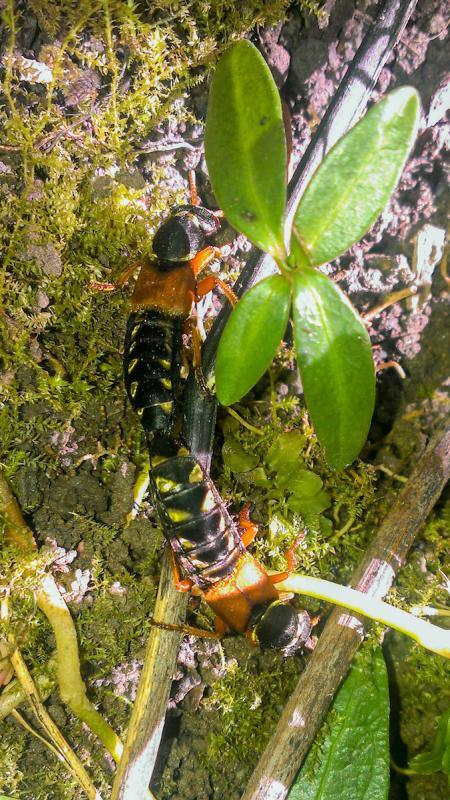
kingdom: Animalia
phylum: Arthropoda
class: Insecta
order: Coleoptera
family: Staphylinidae
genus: Staphylinus
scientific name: Staphylinus caesareus
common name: Staph beetle
